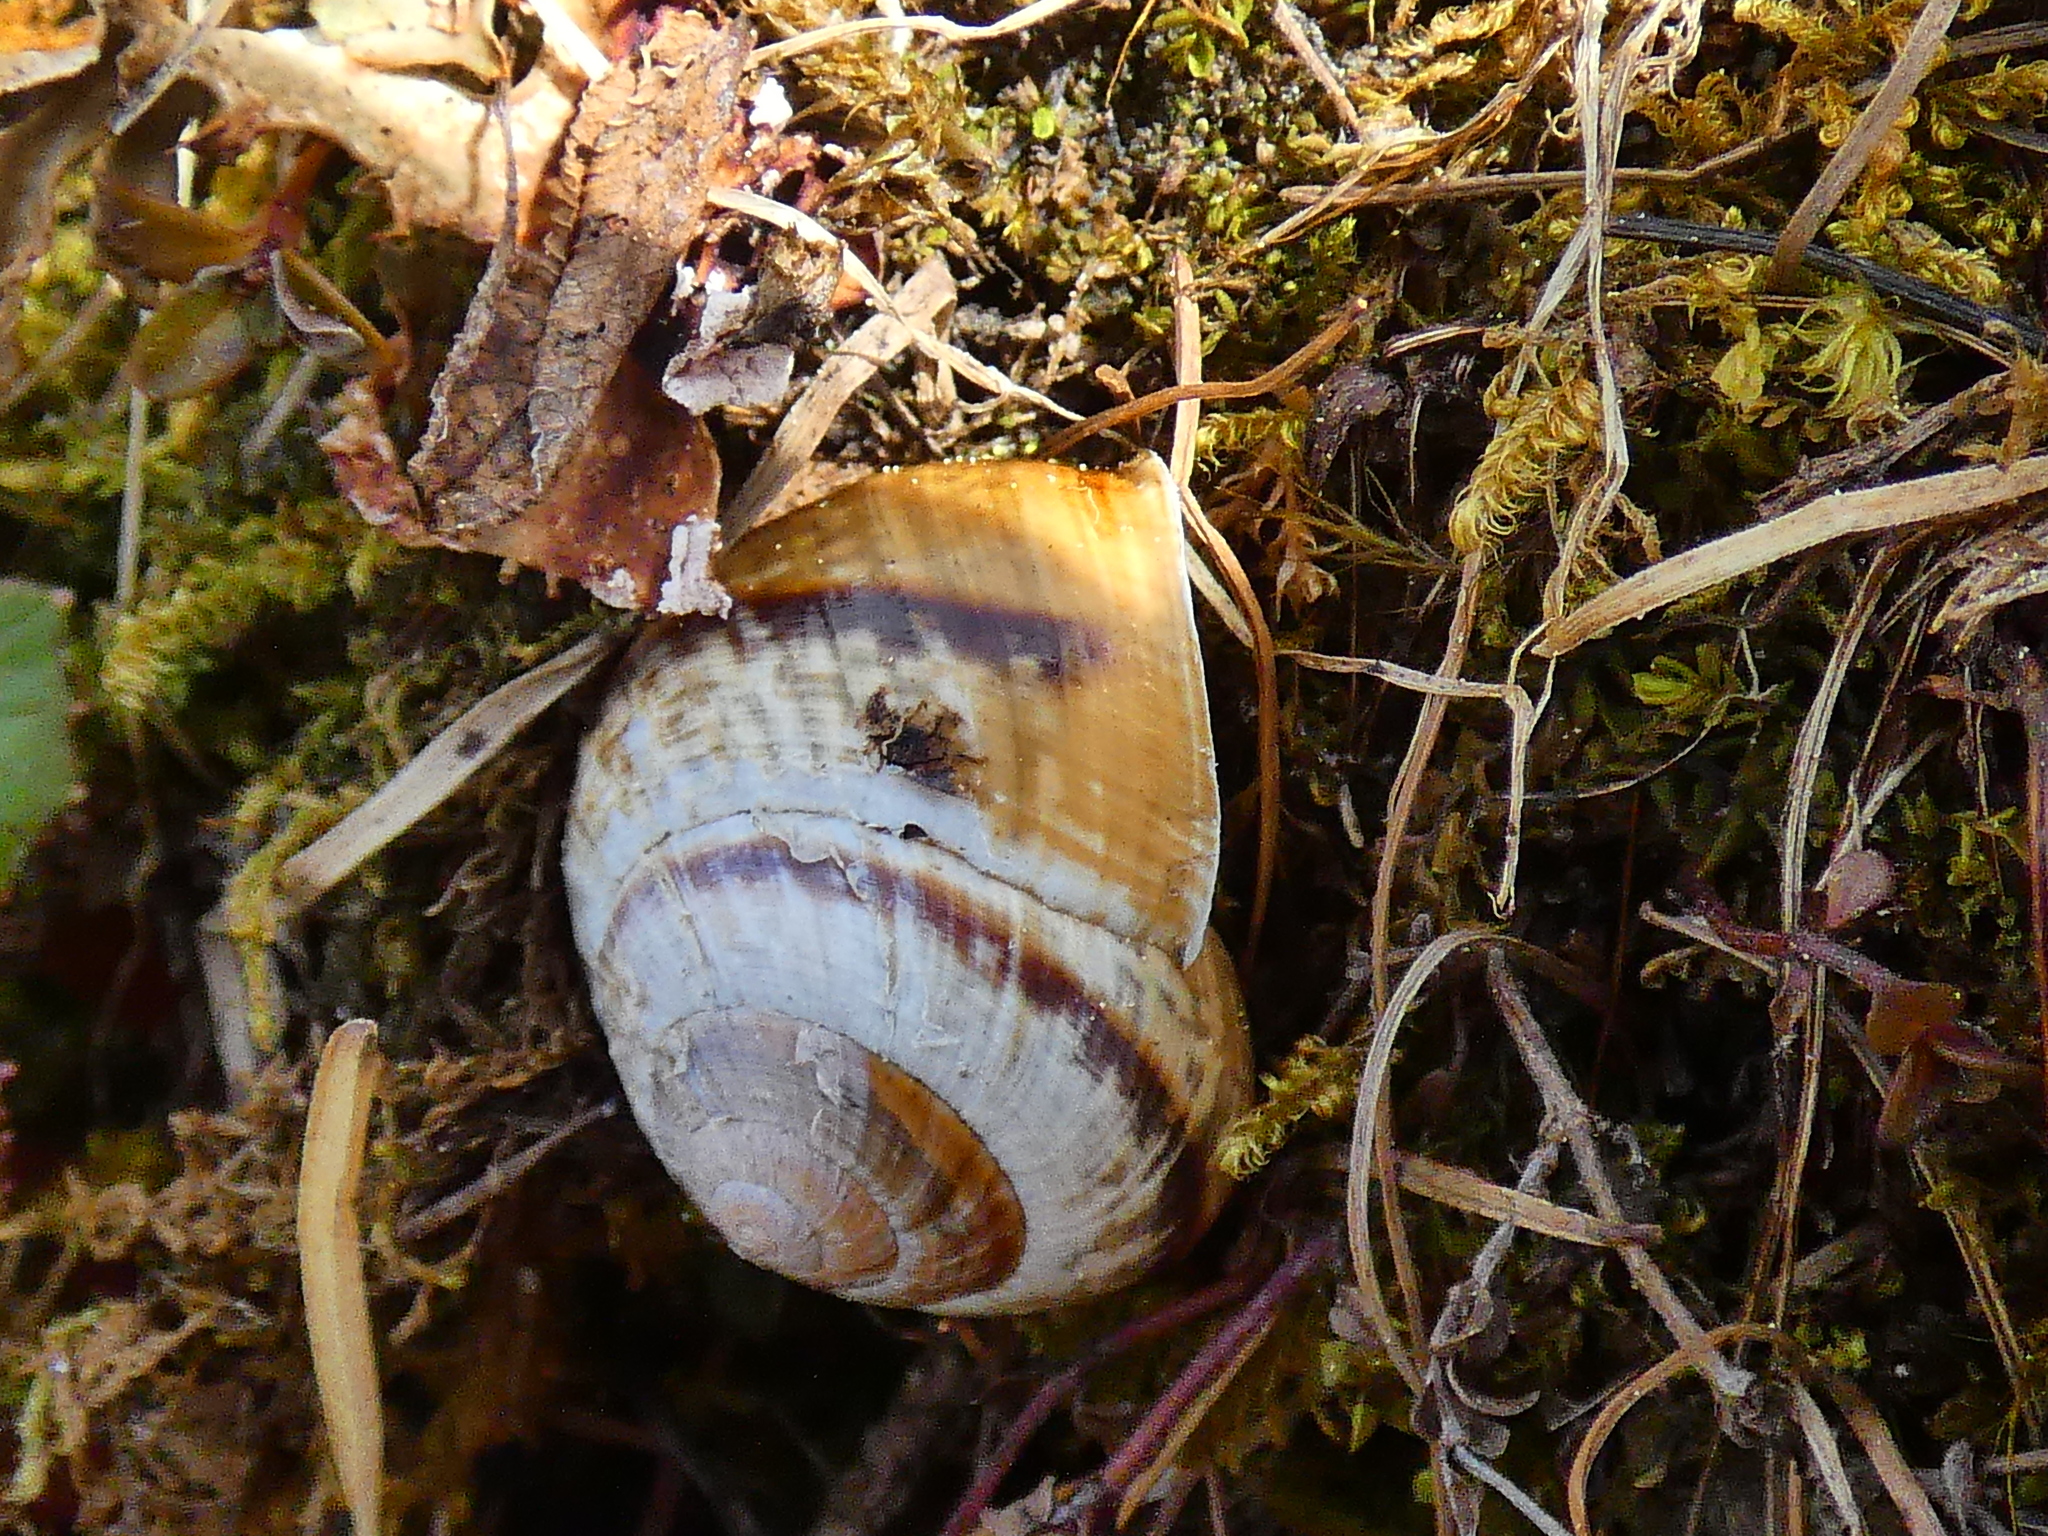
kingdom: Animalia
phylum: Mollusca
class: Gastropoda
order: Stylommatophora
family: Helicidae
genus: Arianta
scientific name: Arianta arbustorum
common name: Copse snail
